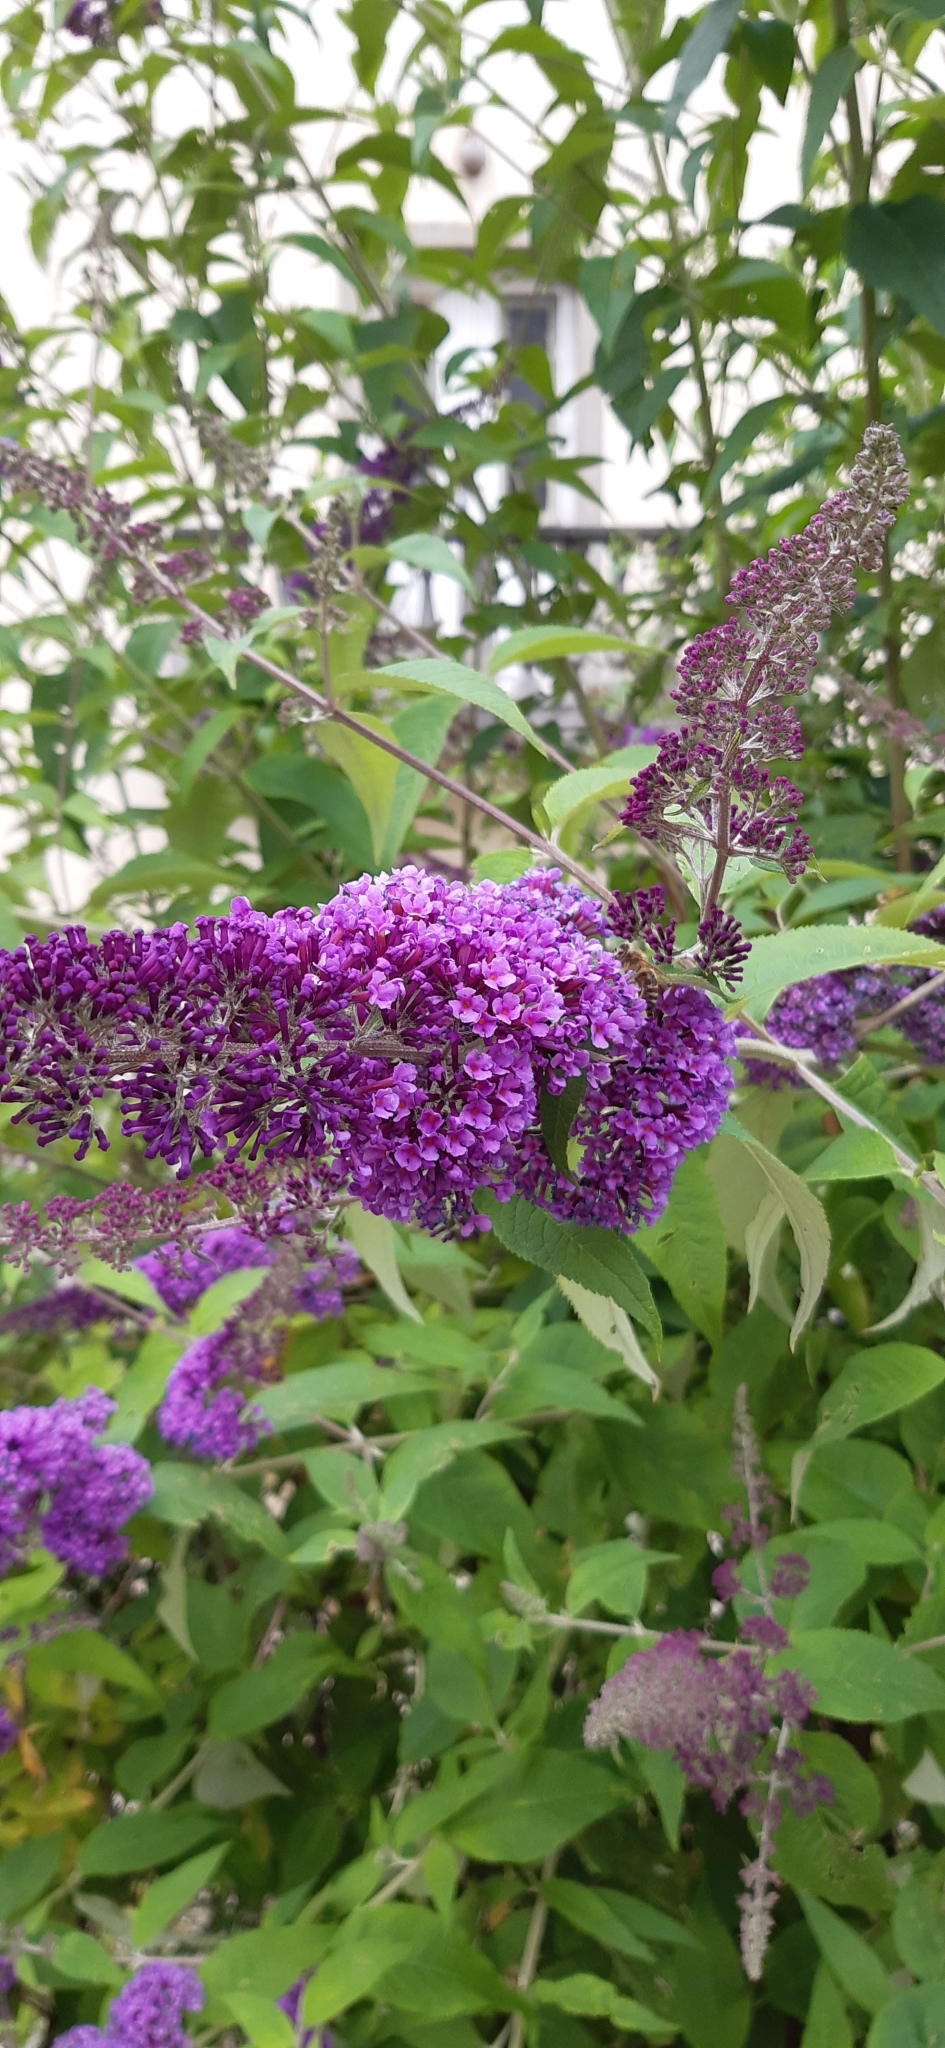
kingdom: Plantae
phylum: Tracheophyta
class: Magnoliopsida
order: Lamiales
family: Scrophulariaceae
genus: Buddleja
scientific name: Buddleja davidii
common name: Butterfly-bush
